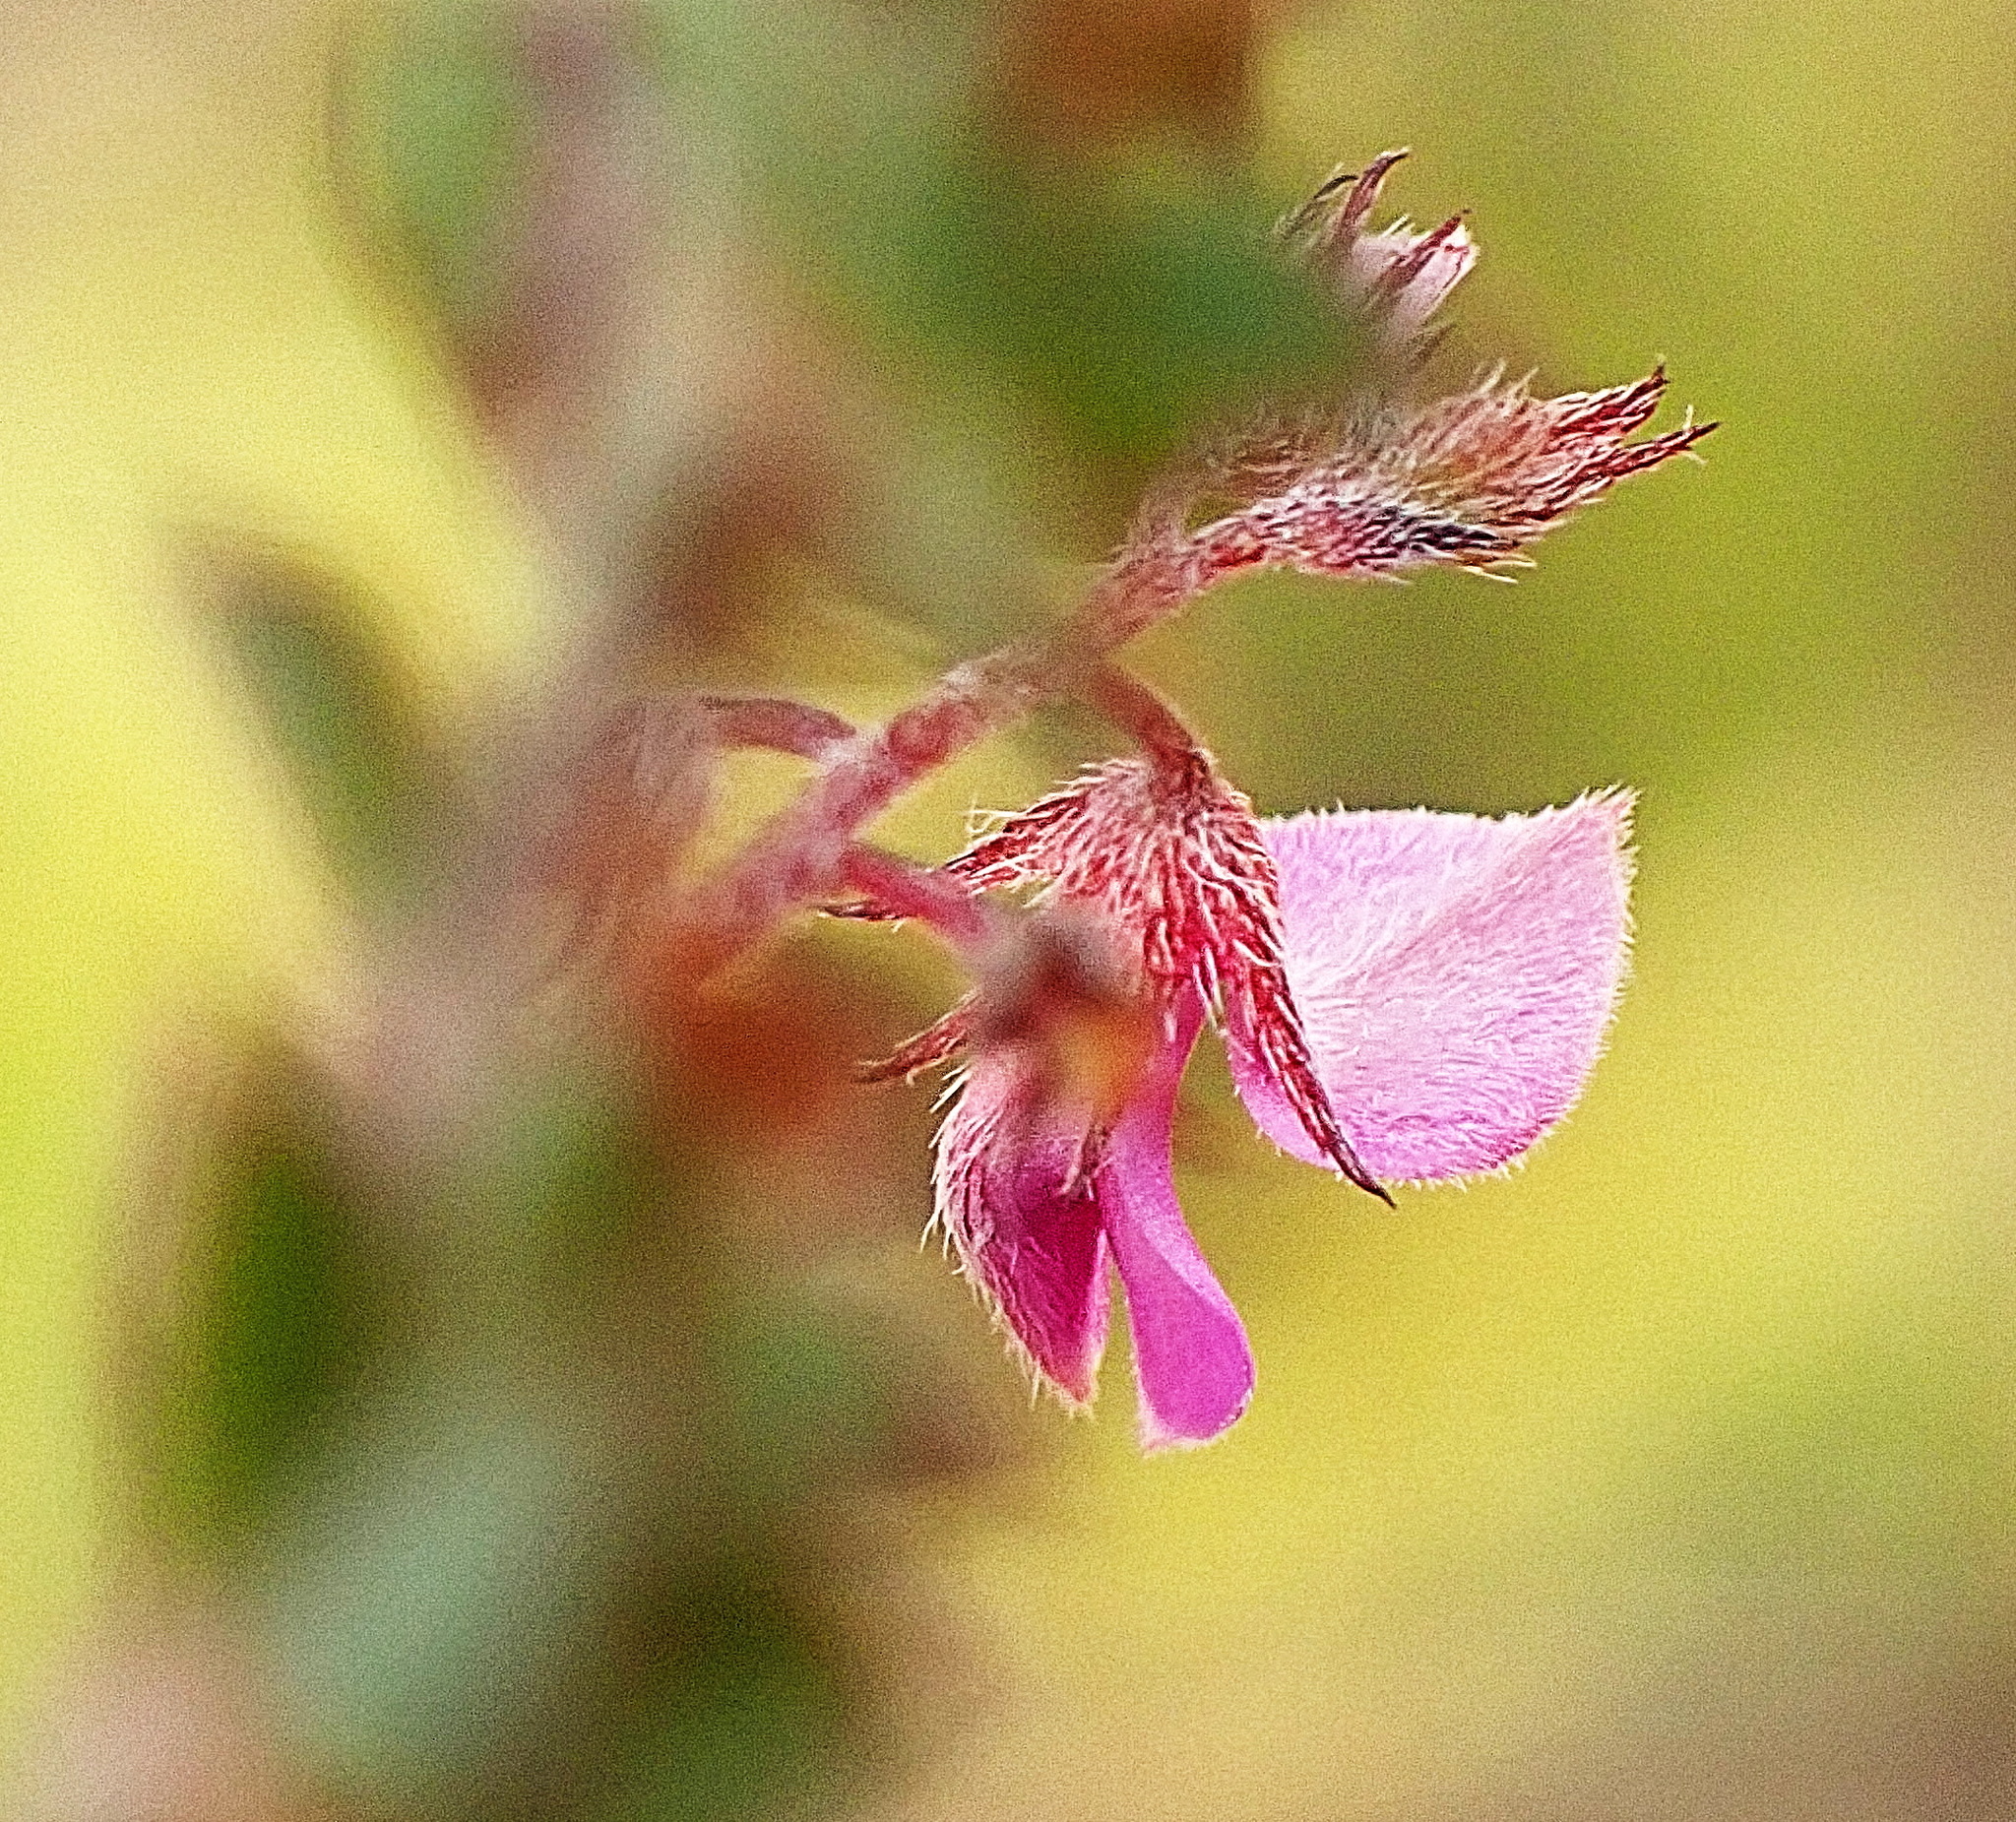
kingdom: Plantae
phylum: Tracheophyta
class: Magnoliopsida
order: Fabales
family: Fabaceae
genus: Indigofera
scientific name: Indigofera alopecuroides
